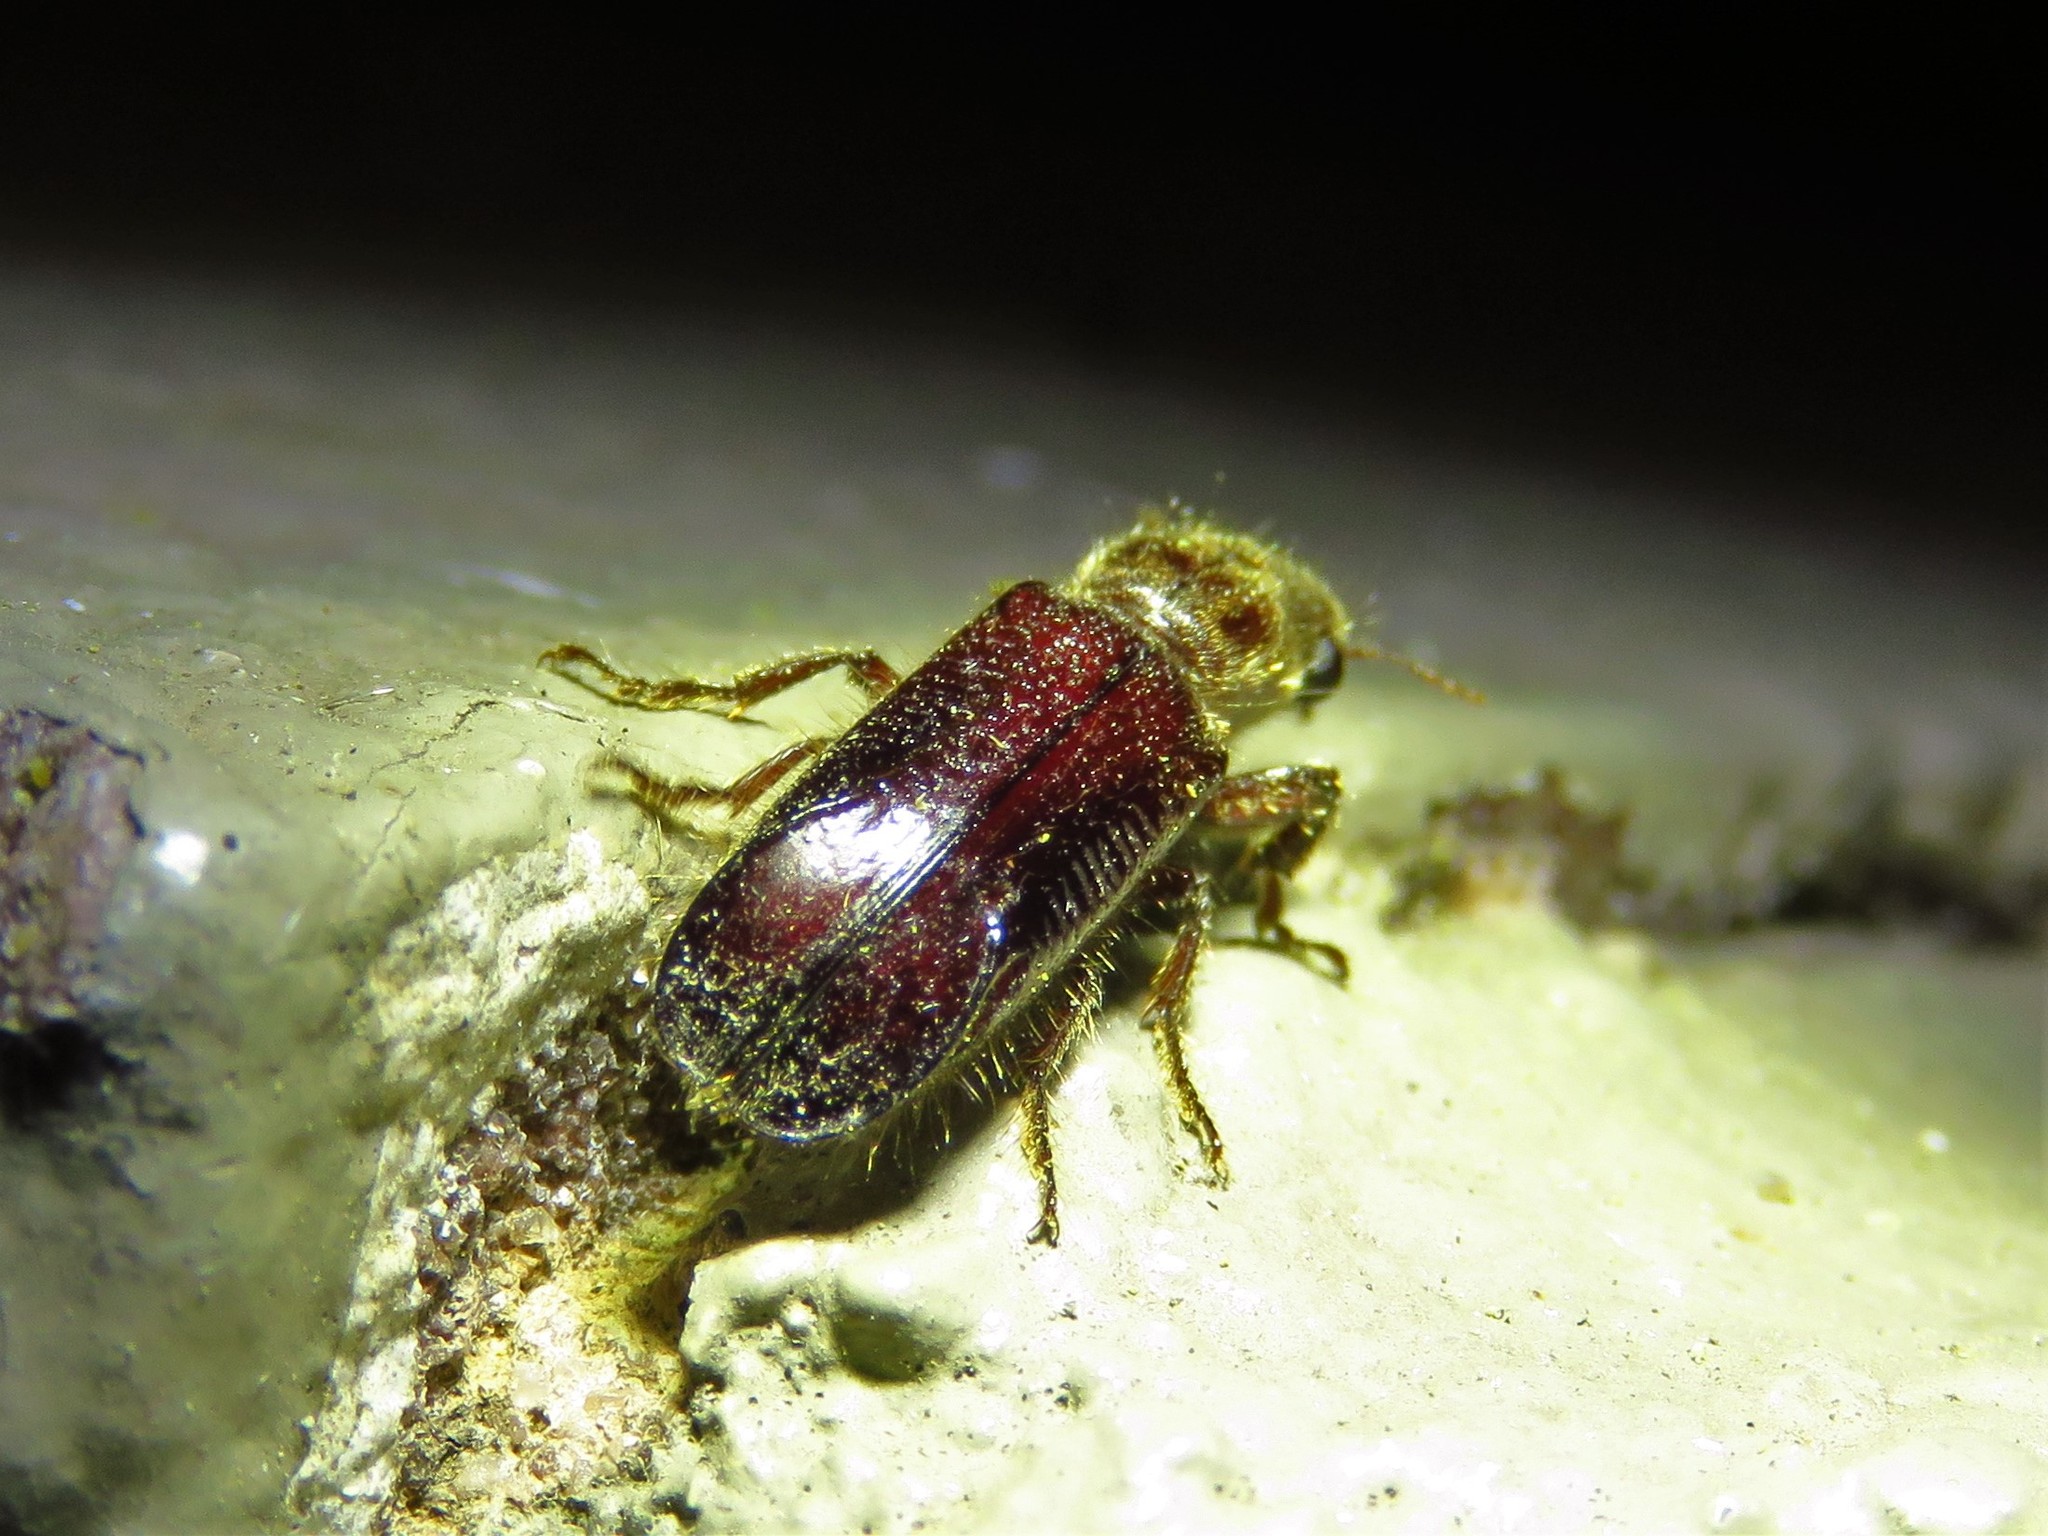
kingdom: Animalia
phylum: Arthropoda
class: Insecta
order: Coleoptera
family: Bostrichidae
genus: Melalgus
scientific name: Melalgus plicatus
